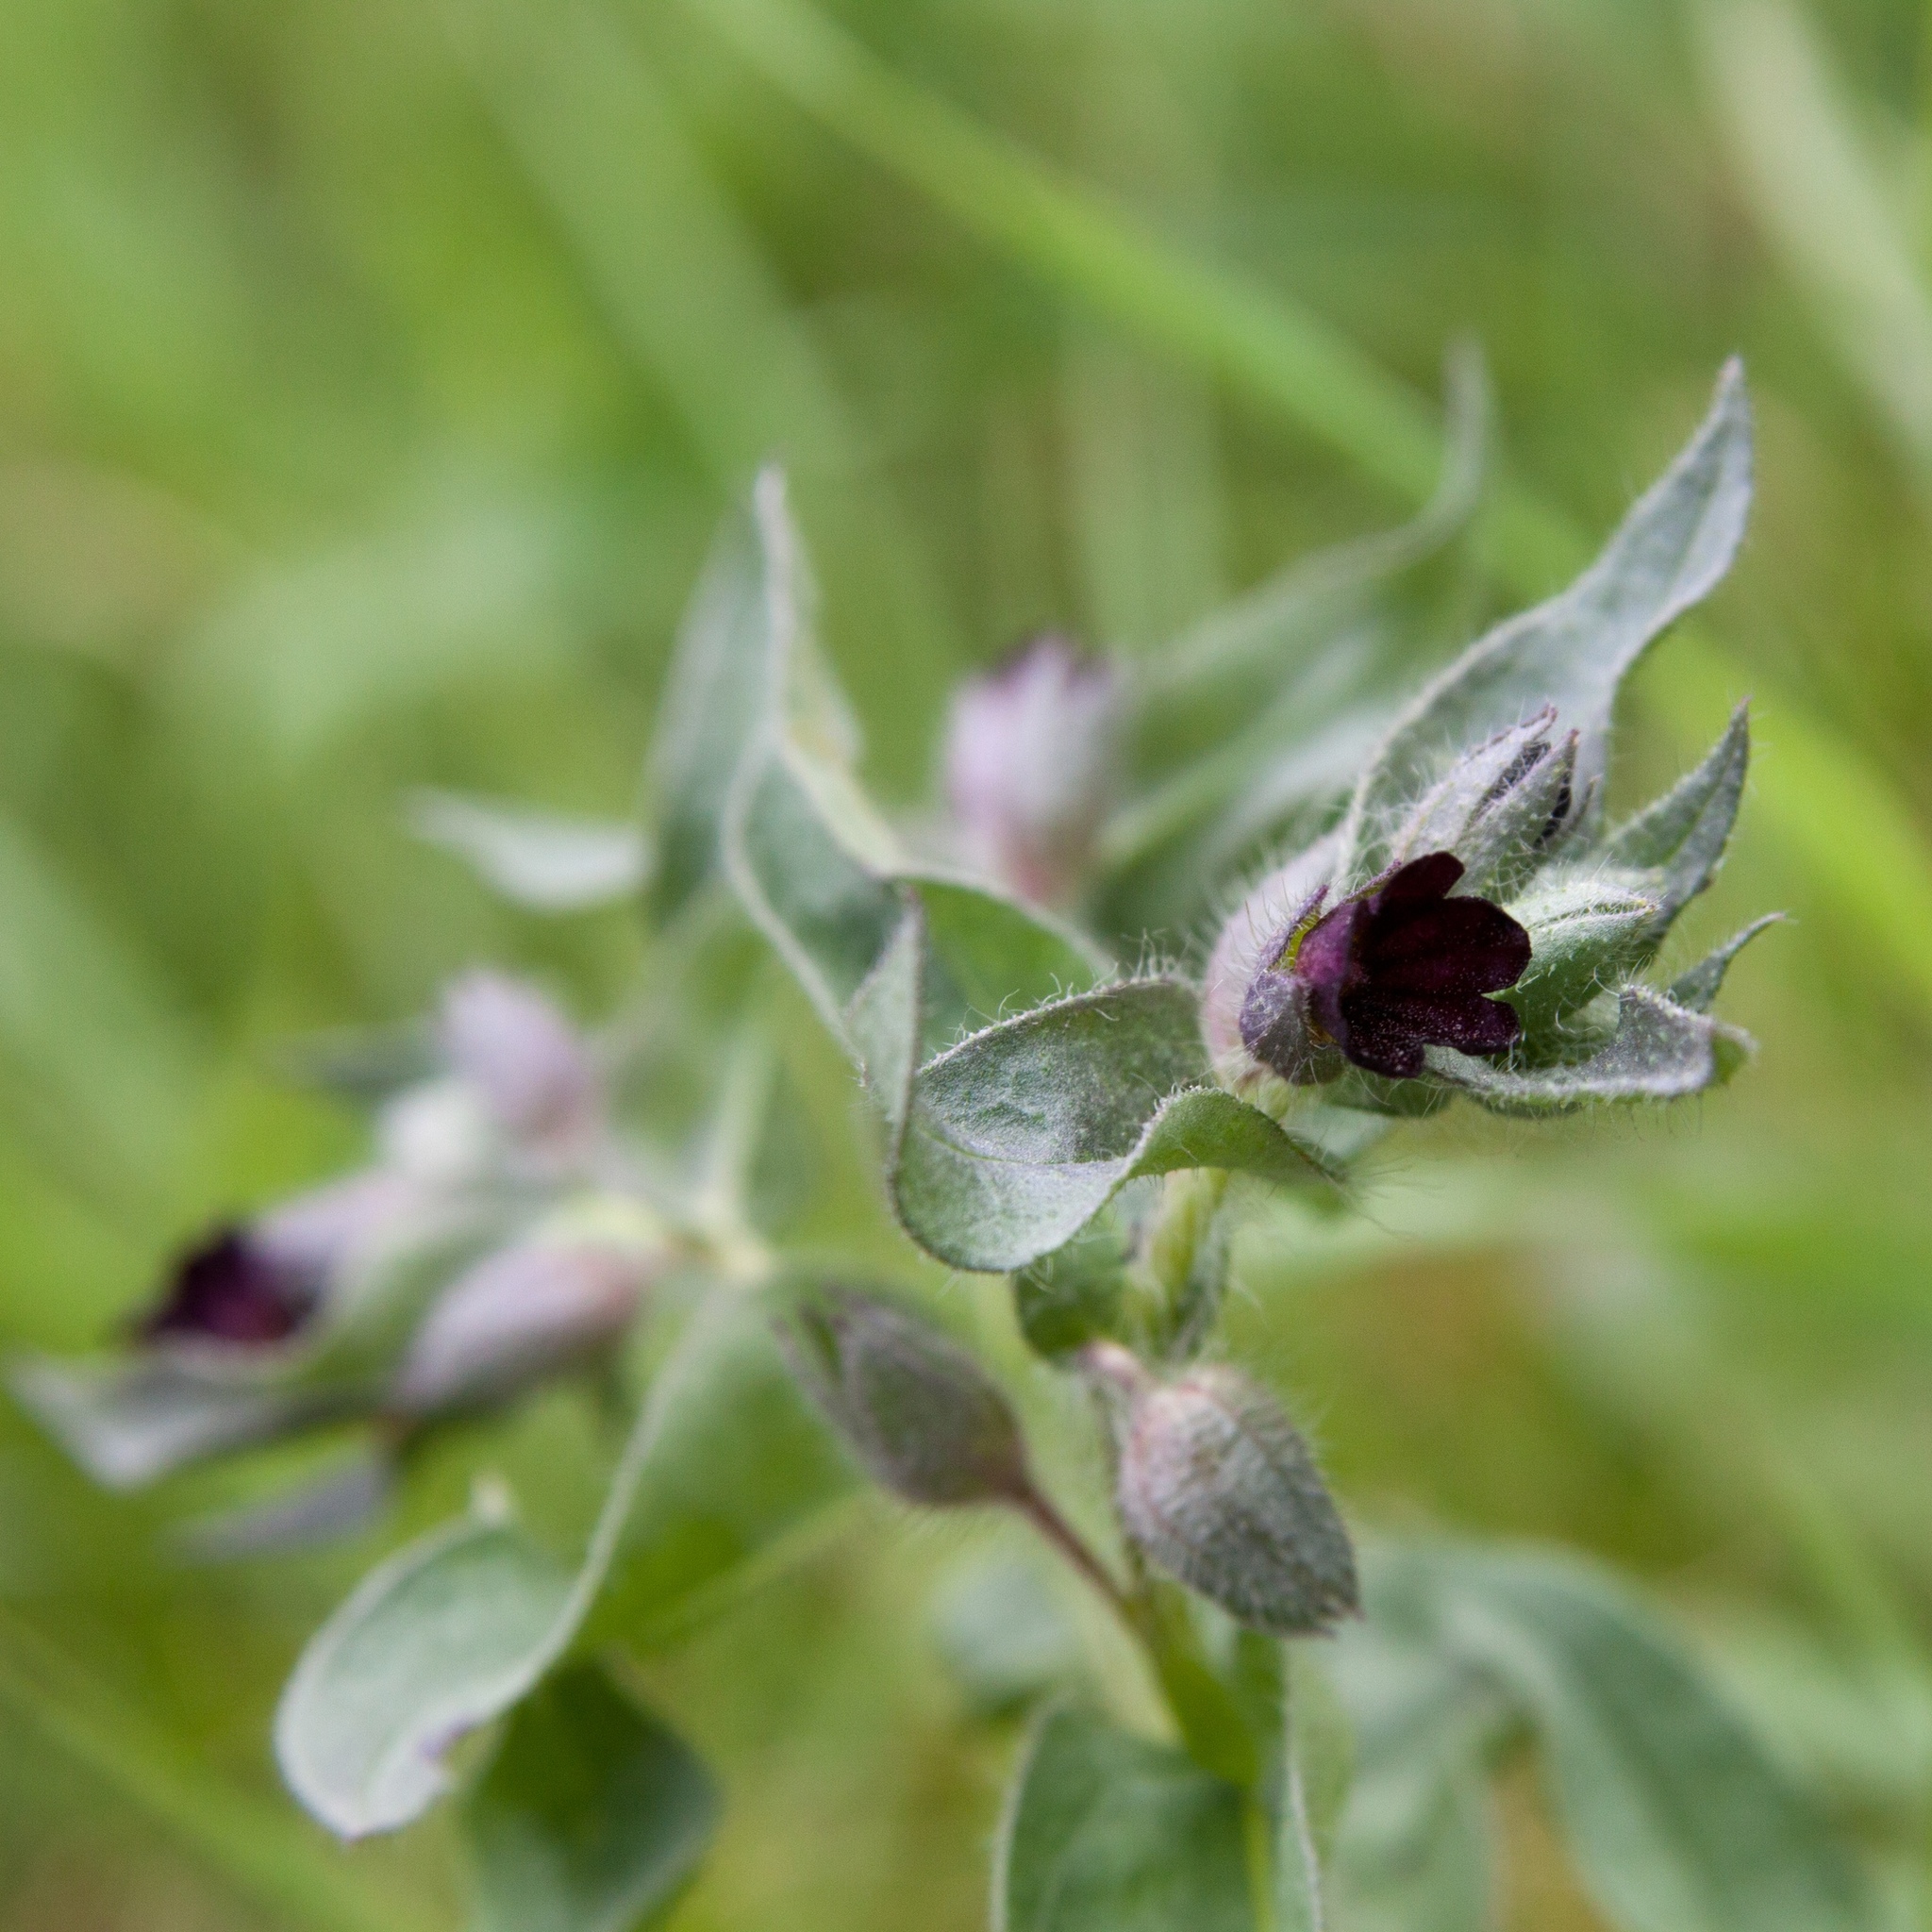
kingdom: Plantae
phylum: Tracheophyta
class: Magnoliopsida
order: Boraginales
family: Boraginaceae
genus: Nonea
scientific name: Nonea pulla
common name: Brown nonea
